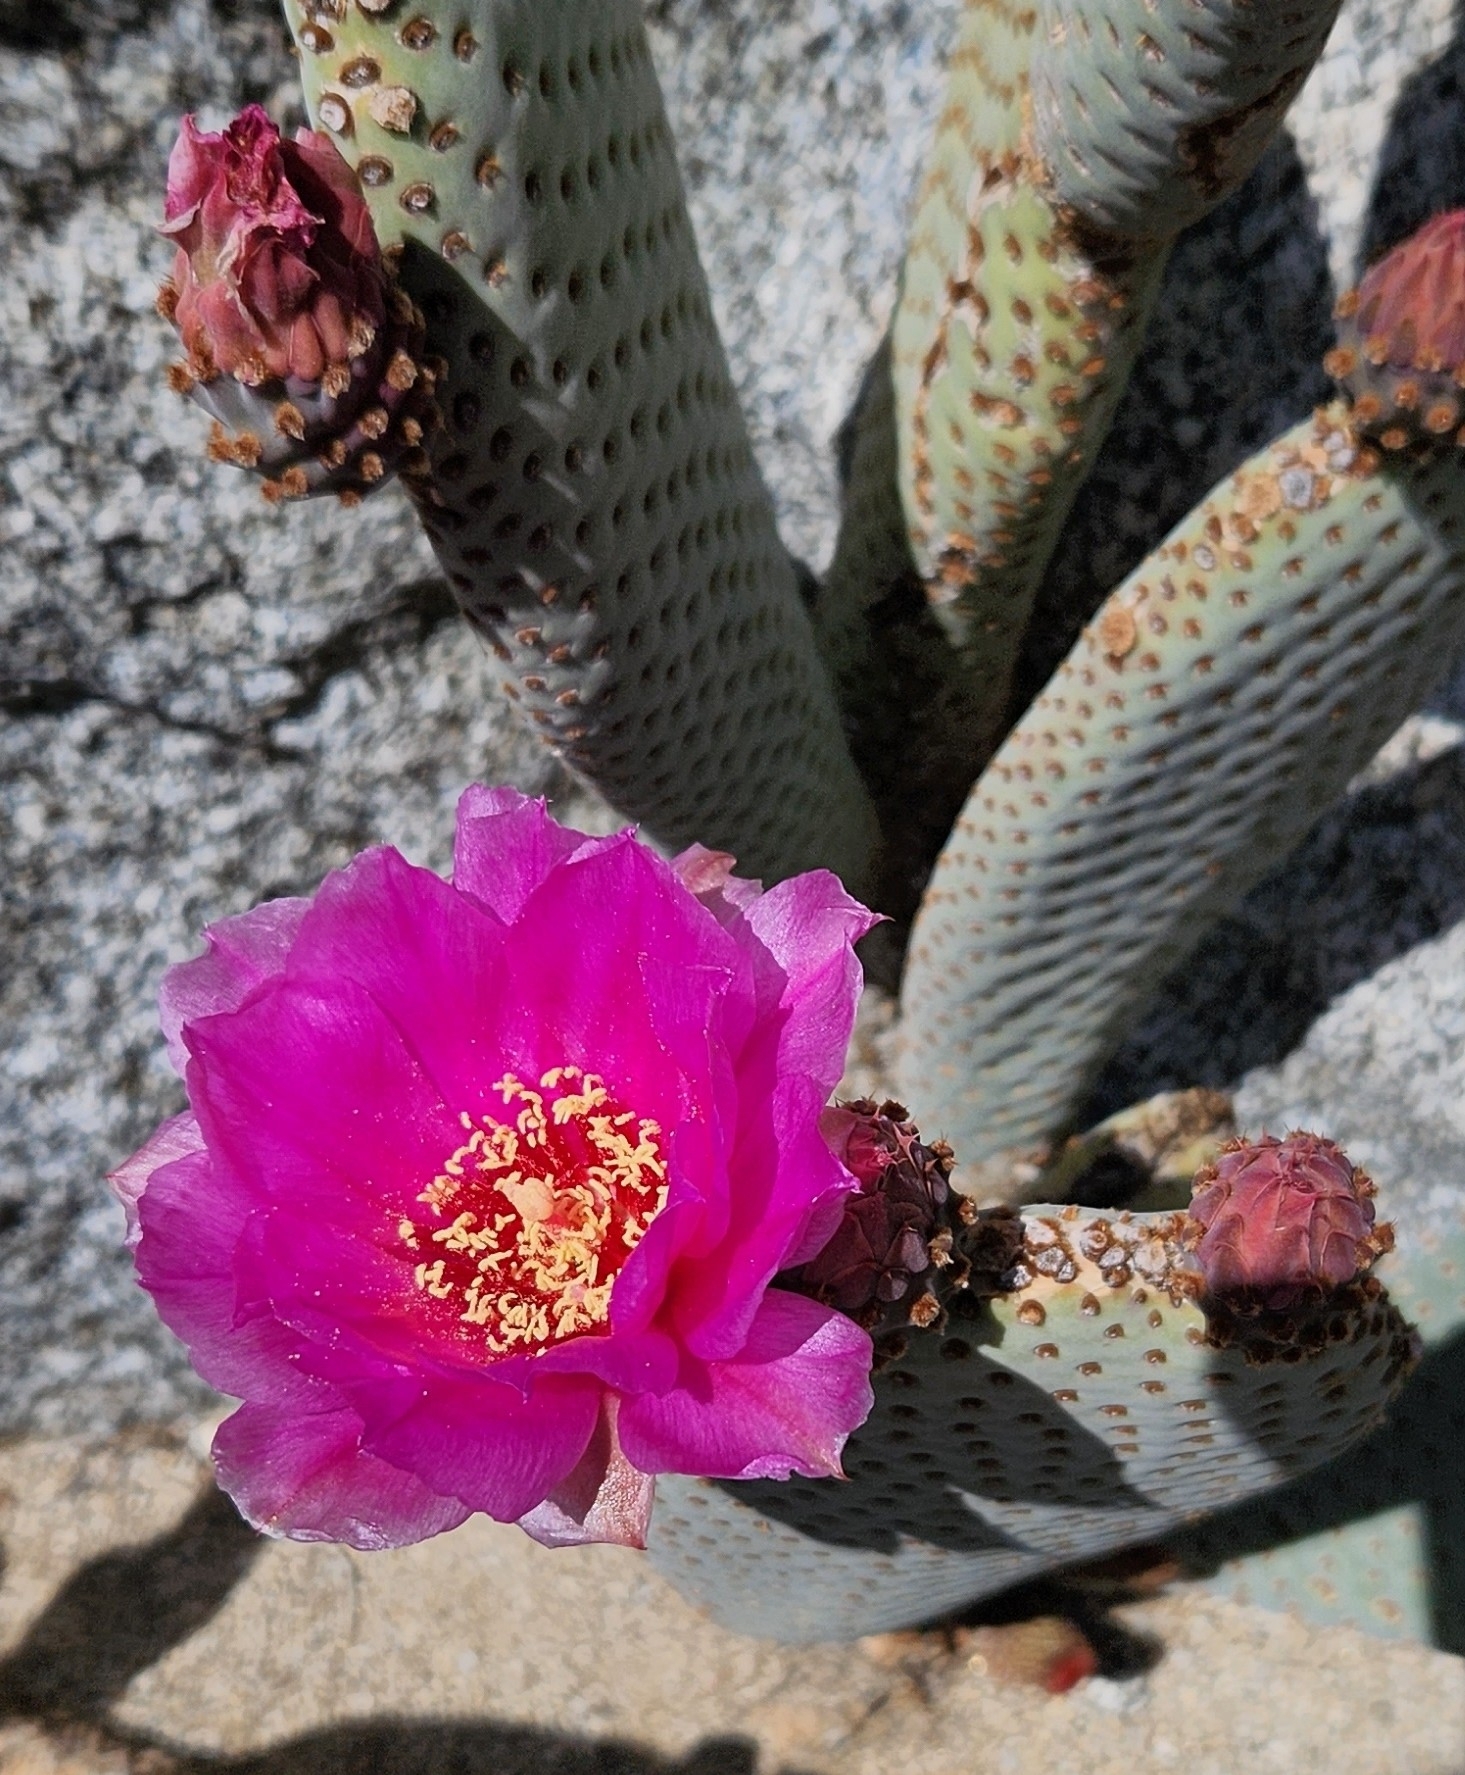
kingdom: Plantae
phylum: Tracheophyta
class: Magnoliopsida
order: Caryophyllales
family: Cactaceae
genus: Opuntia
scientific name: Opuntia basilaris
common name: Beavertail prickly-pear
